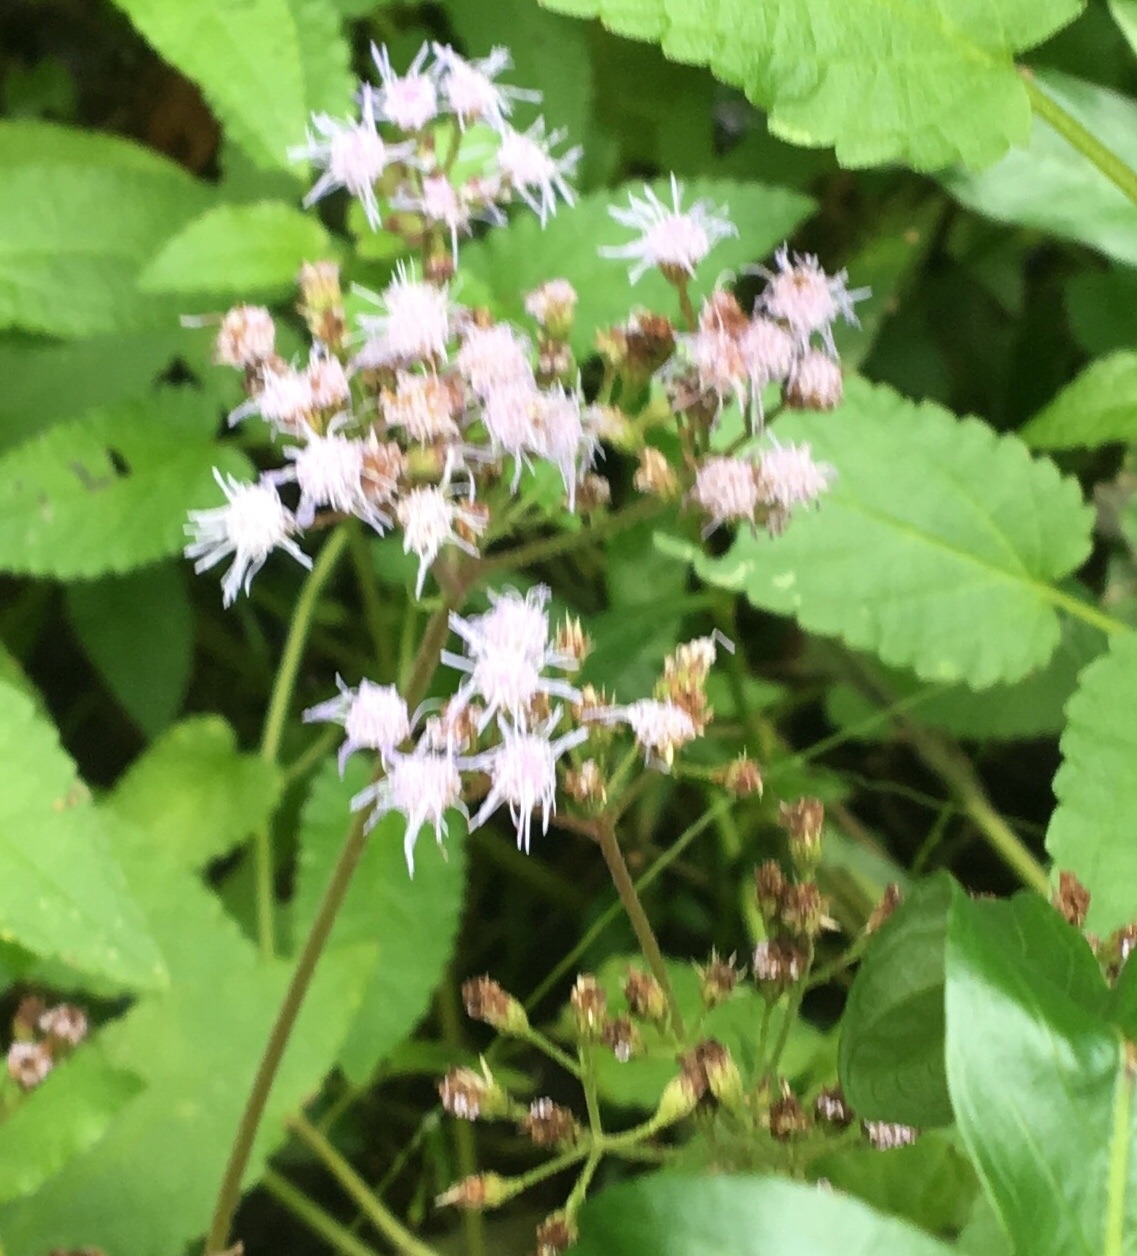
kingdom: Plantae
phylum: Tracheophyta
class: Magnoliopsida
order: Asterales
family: Asteraceae
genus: Conoclinium
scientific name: Conoclinium coelestinum
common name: Blue mistflower
